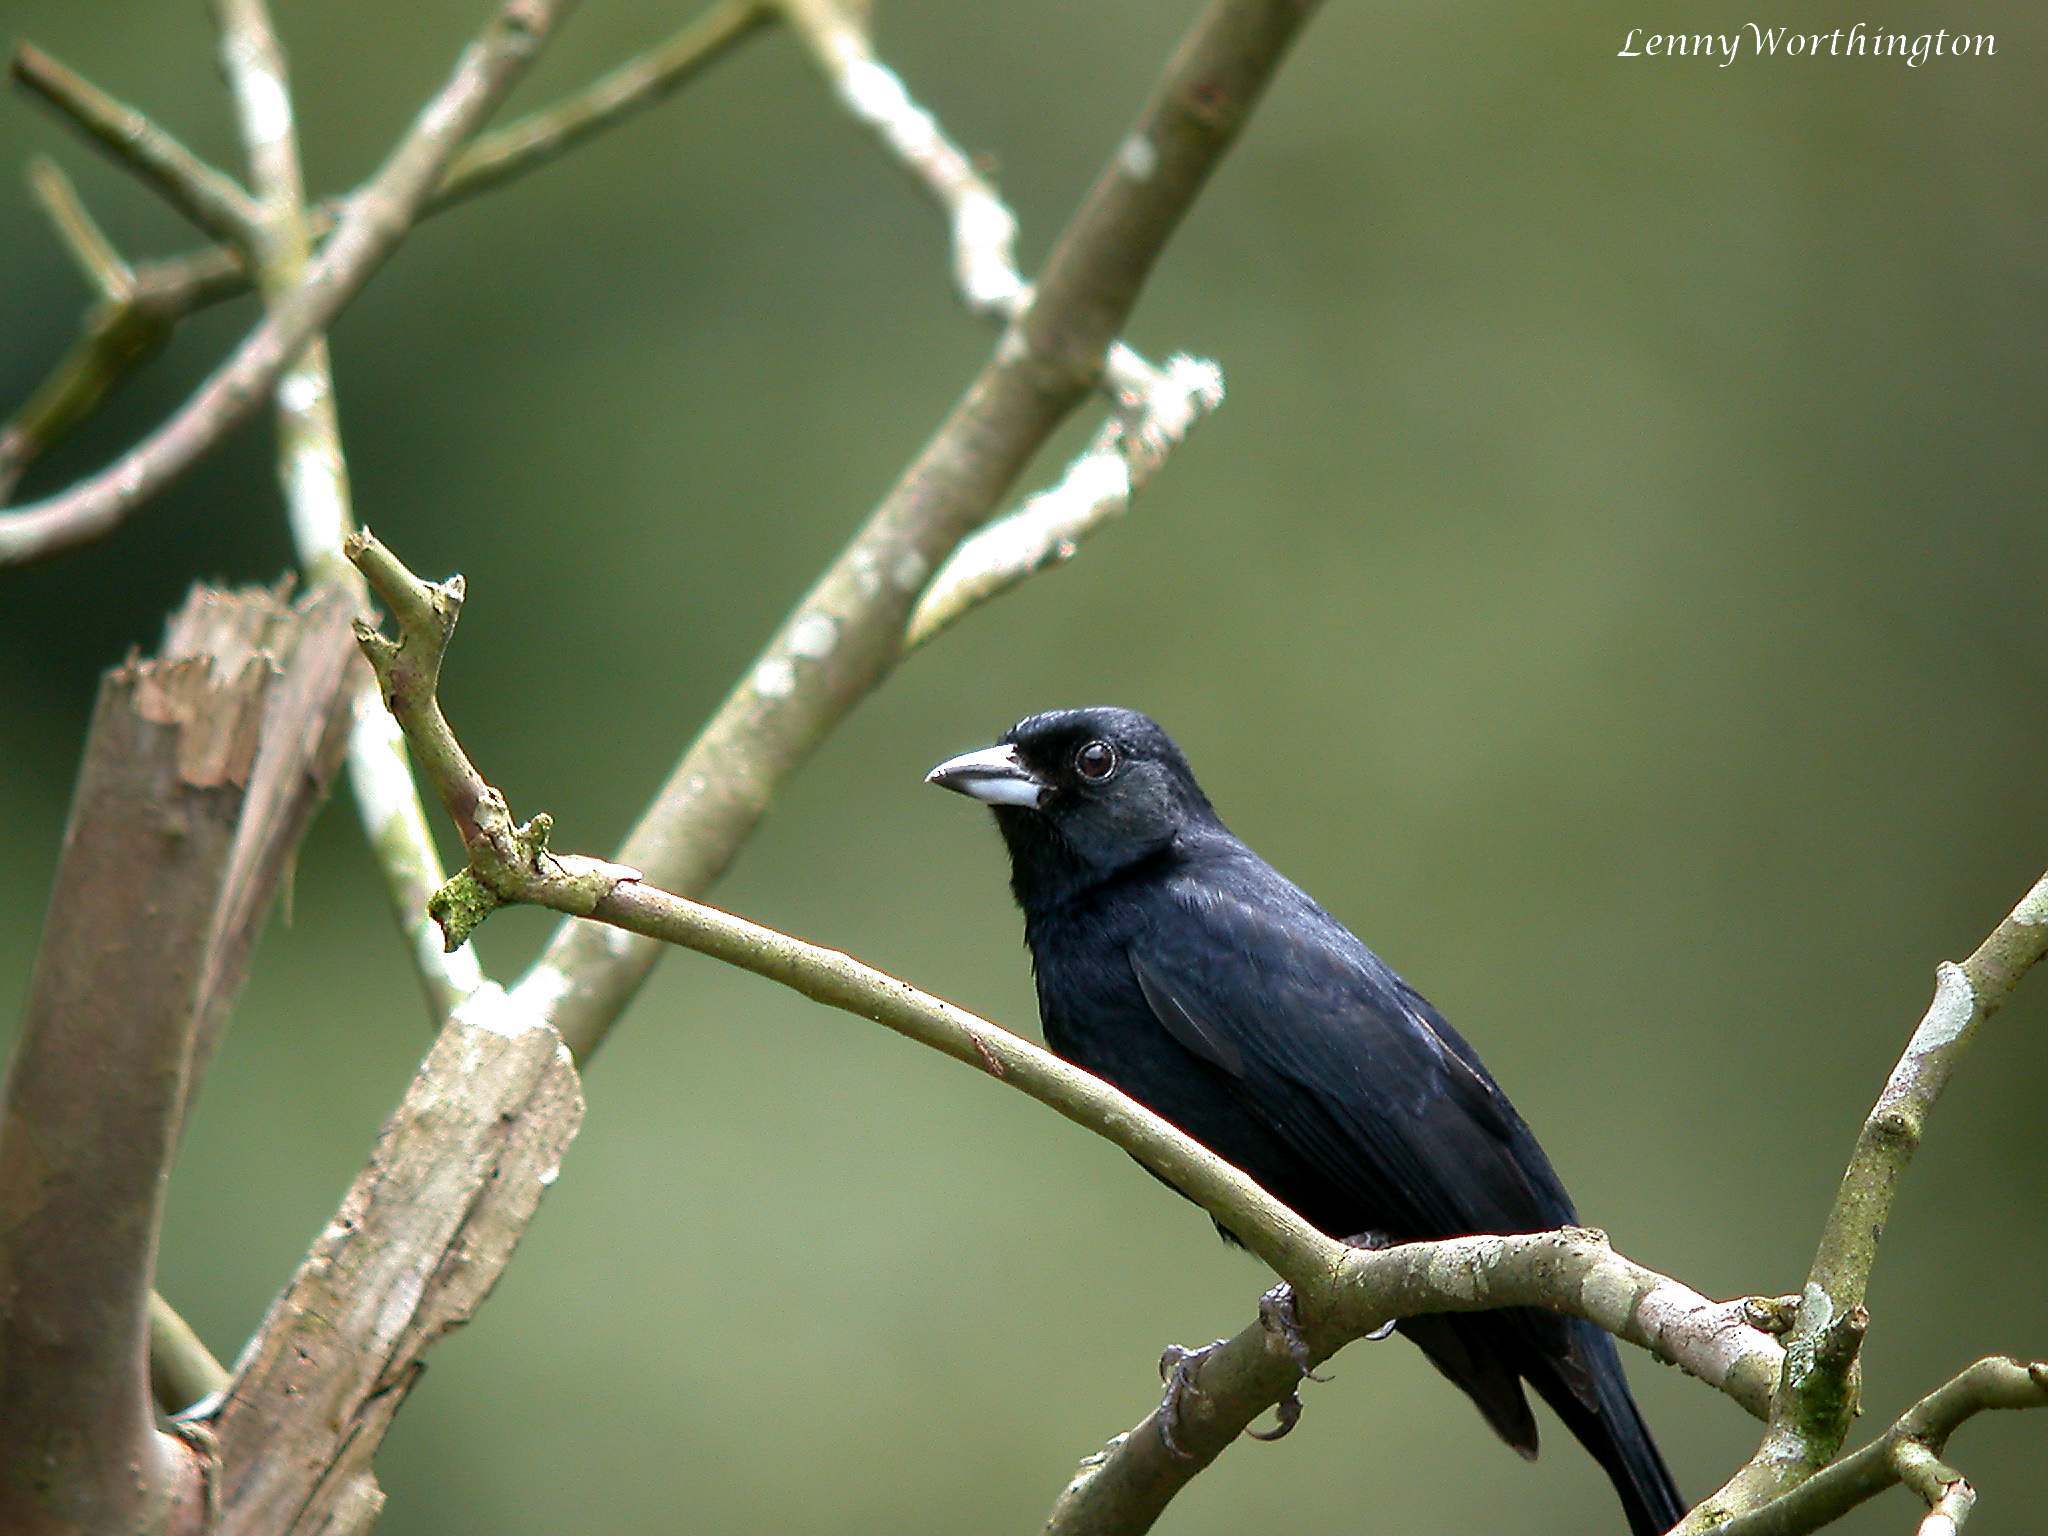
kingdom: Animalia
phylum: Chordata
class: Aves
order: Passeriformes
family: Thraupidae
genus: Tachyphonus
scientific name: Tachyphonus rufus
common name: White-lined tanager
